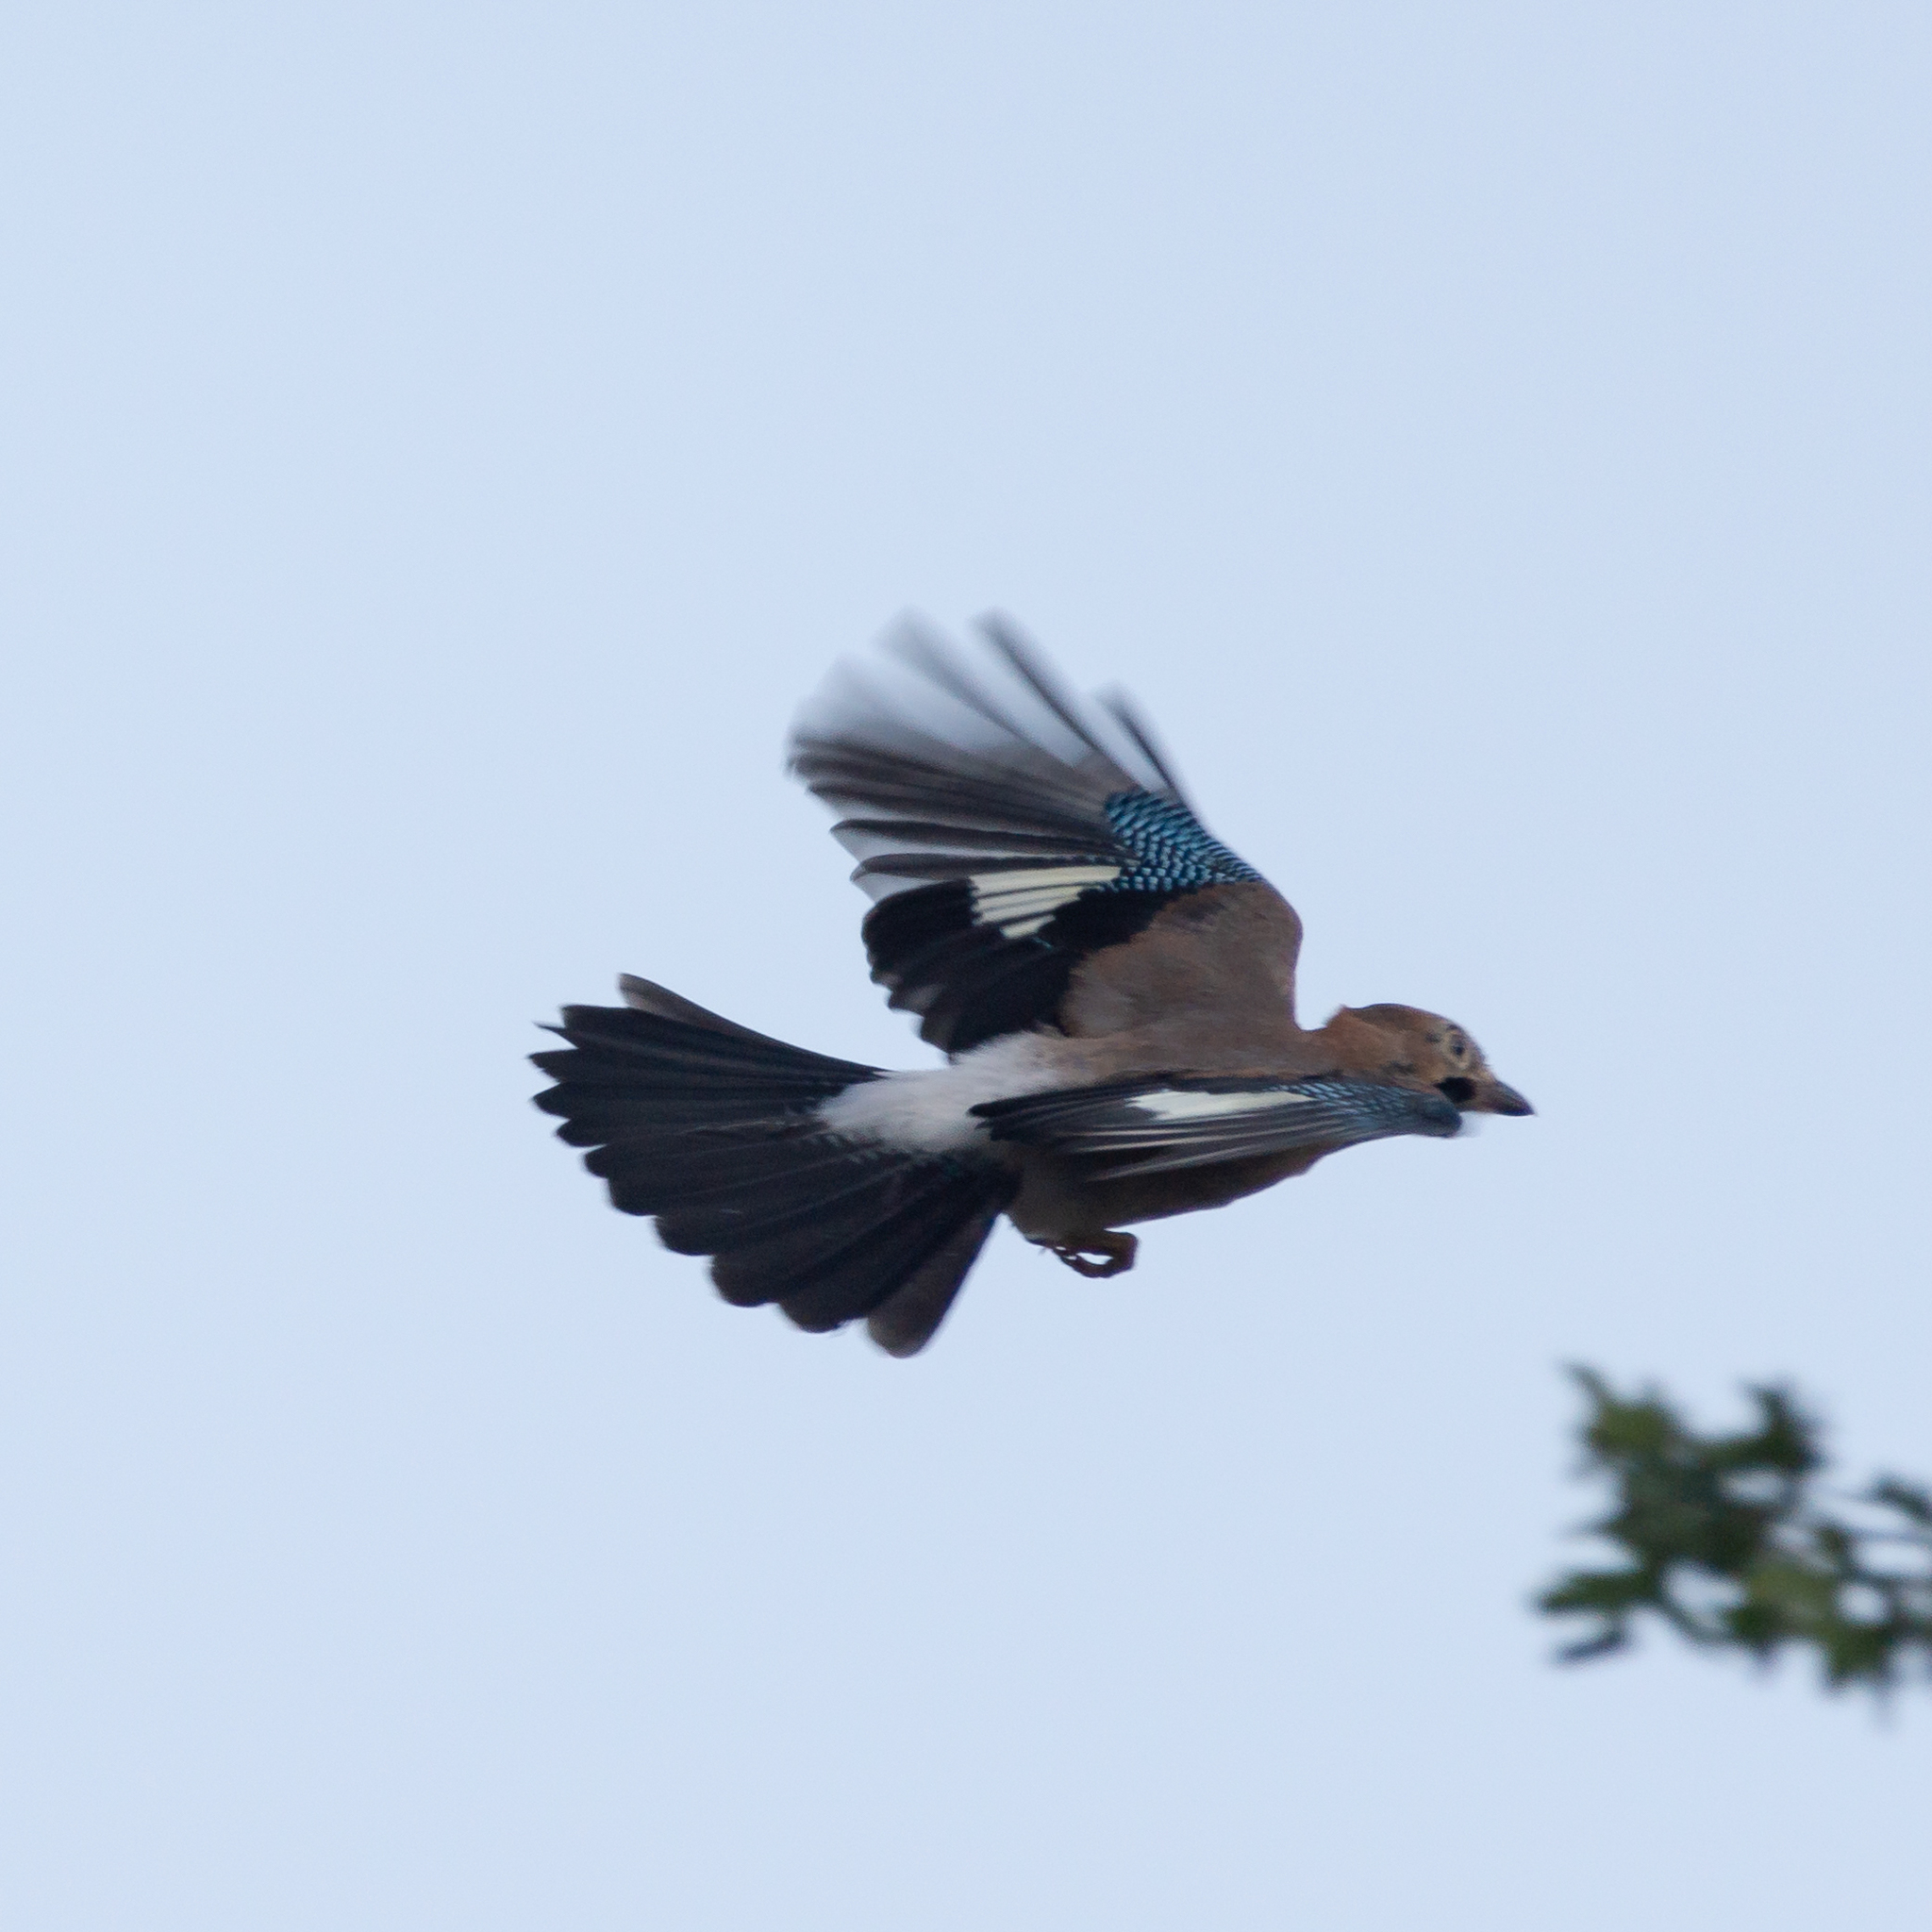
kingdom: Animalia
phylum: Chordata
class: Aves
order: Passeriformes
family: Corvidae
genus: Garrulus
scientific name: Garrulus glandarius
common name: Eurasian jay
